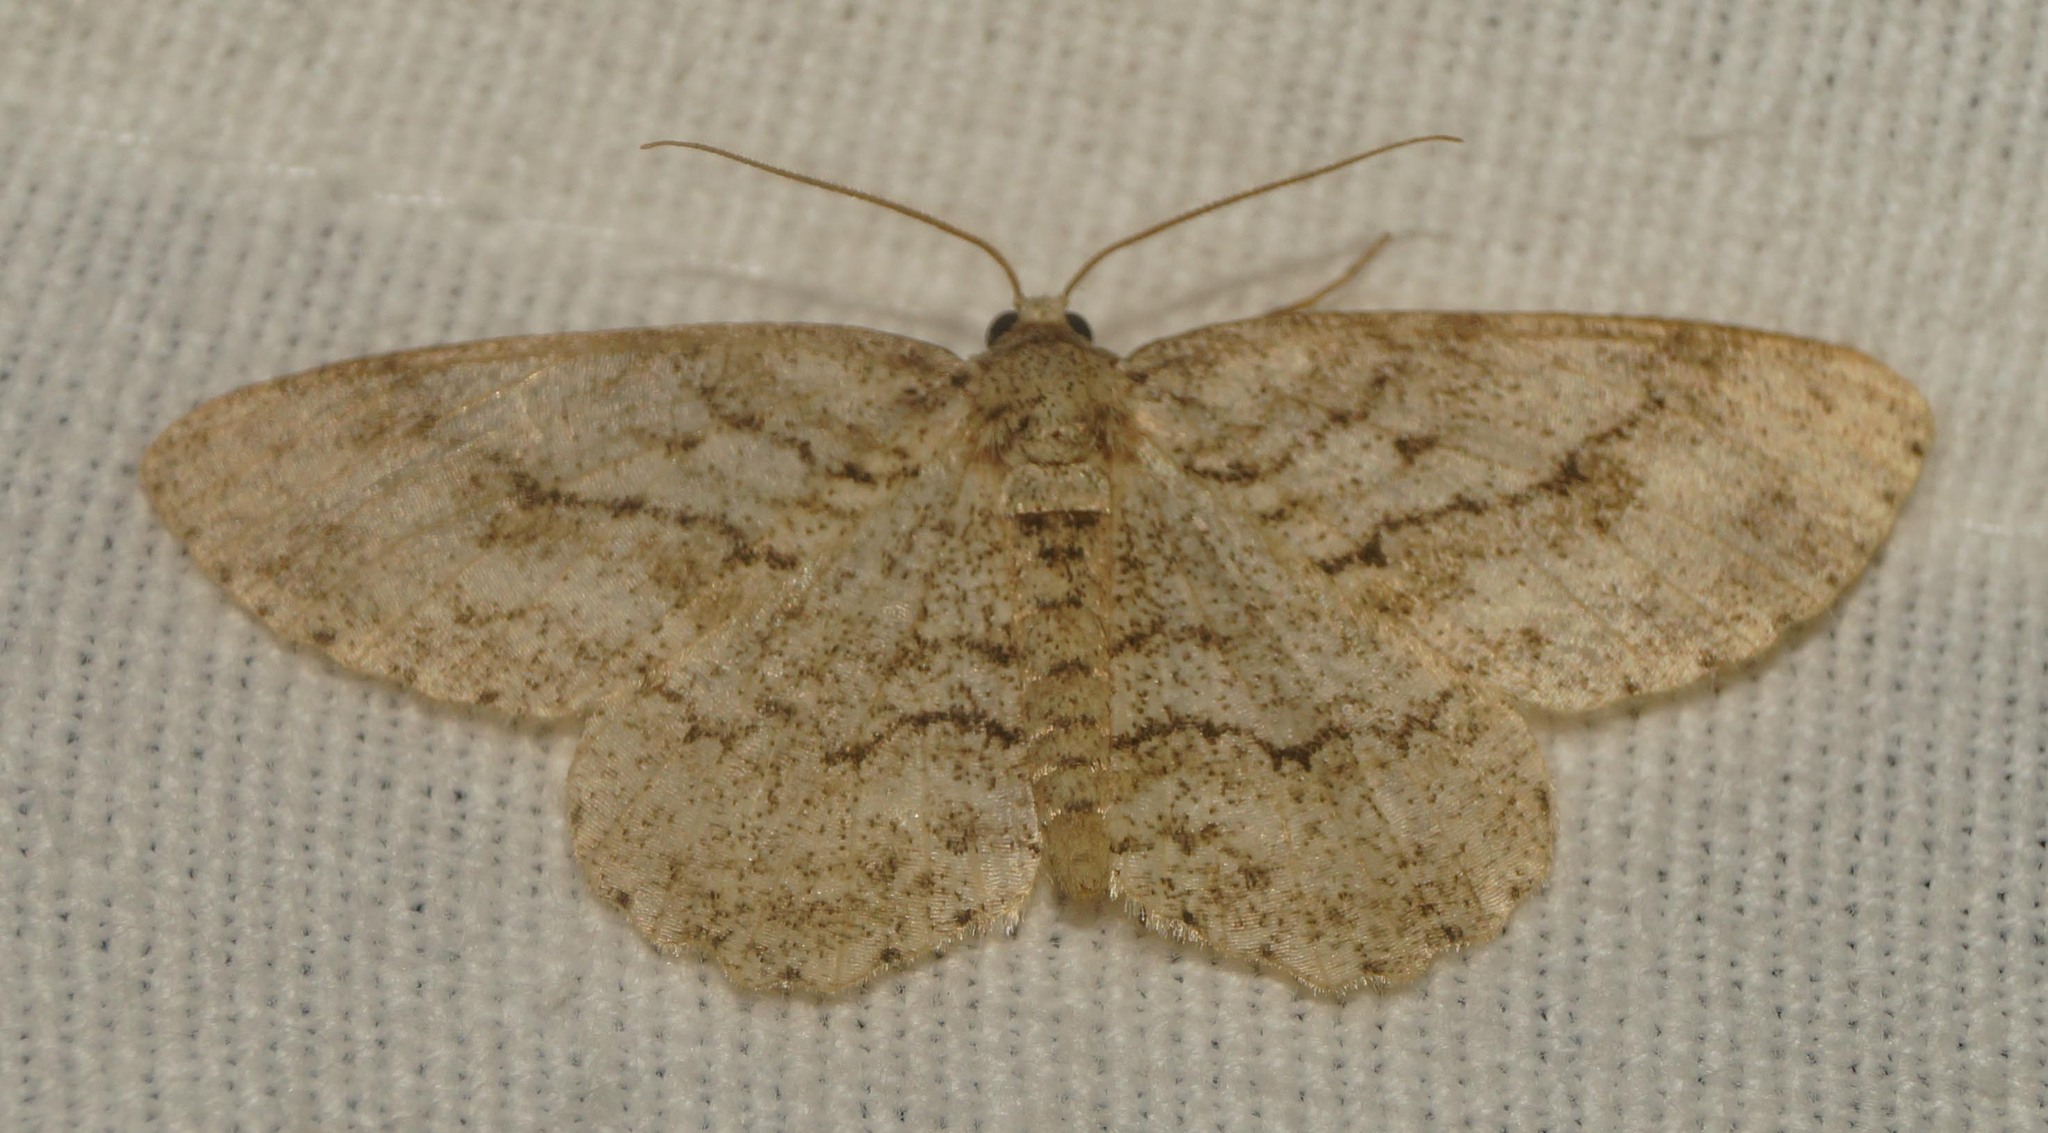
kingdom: Animalia
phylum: Arthropoda
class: Insecta
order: Lepidoptera
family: Geometridae
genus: Ectropis
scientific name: Ectropis crepuscularia
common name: Engrailed
